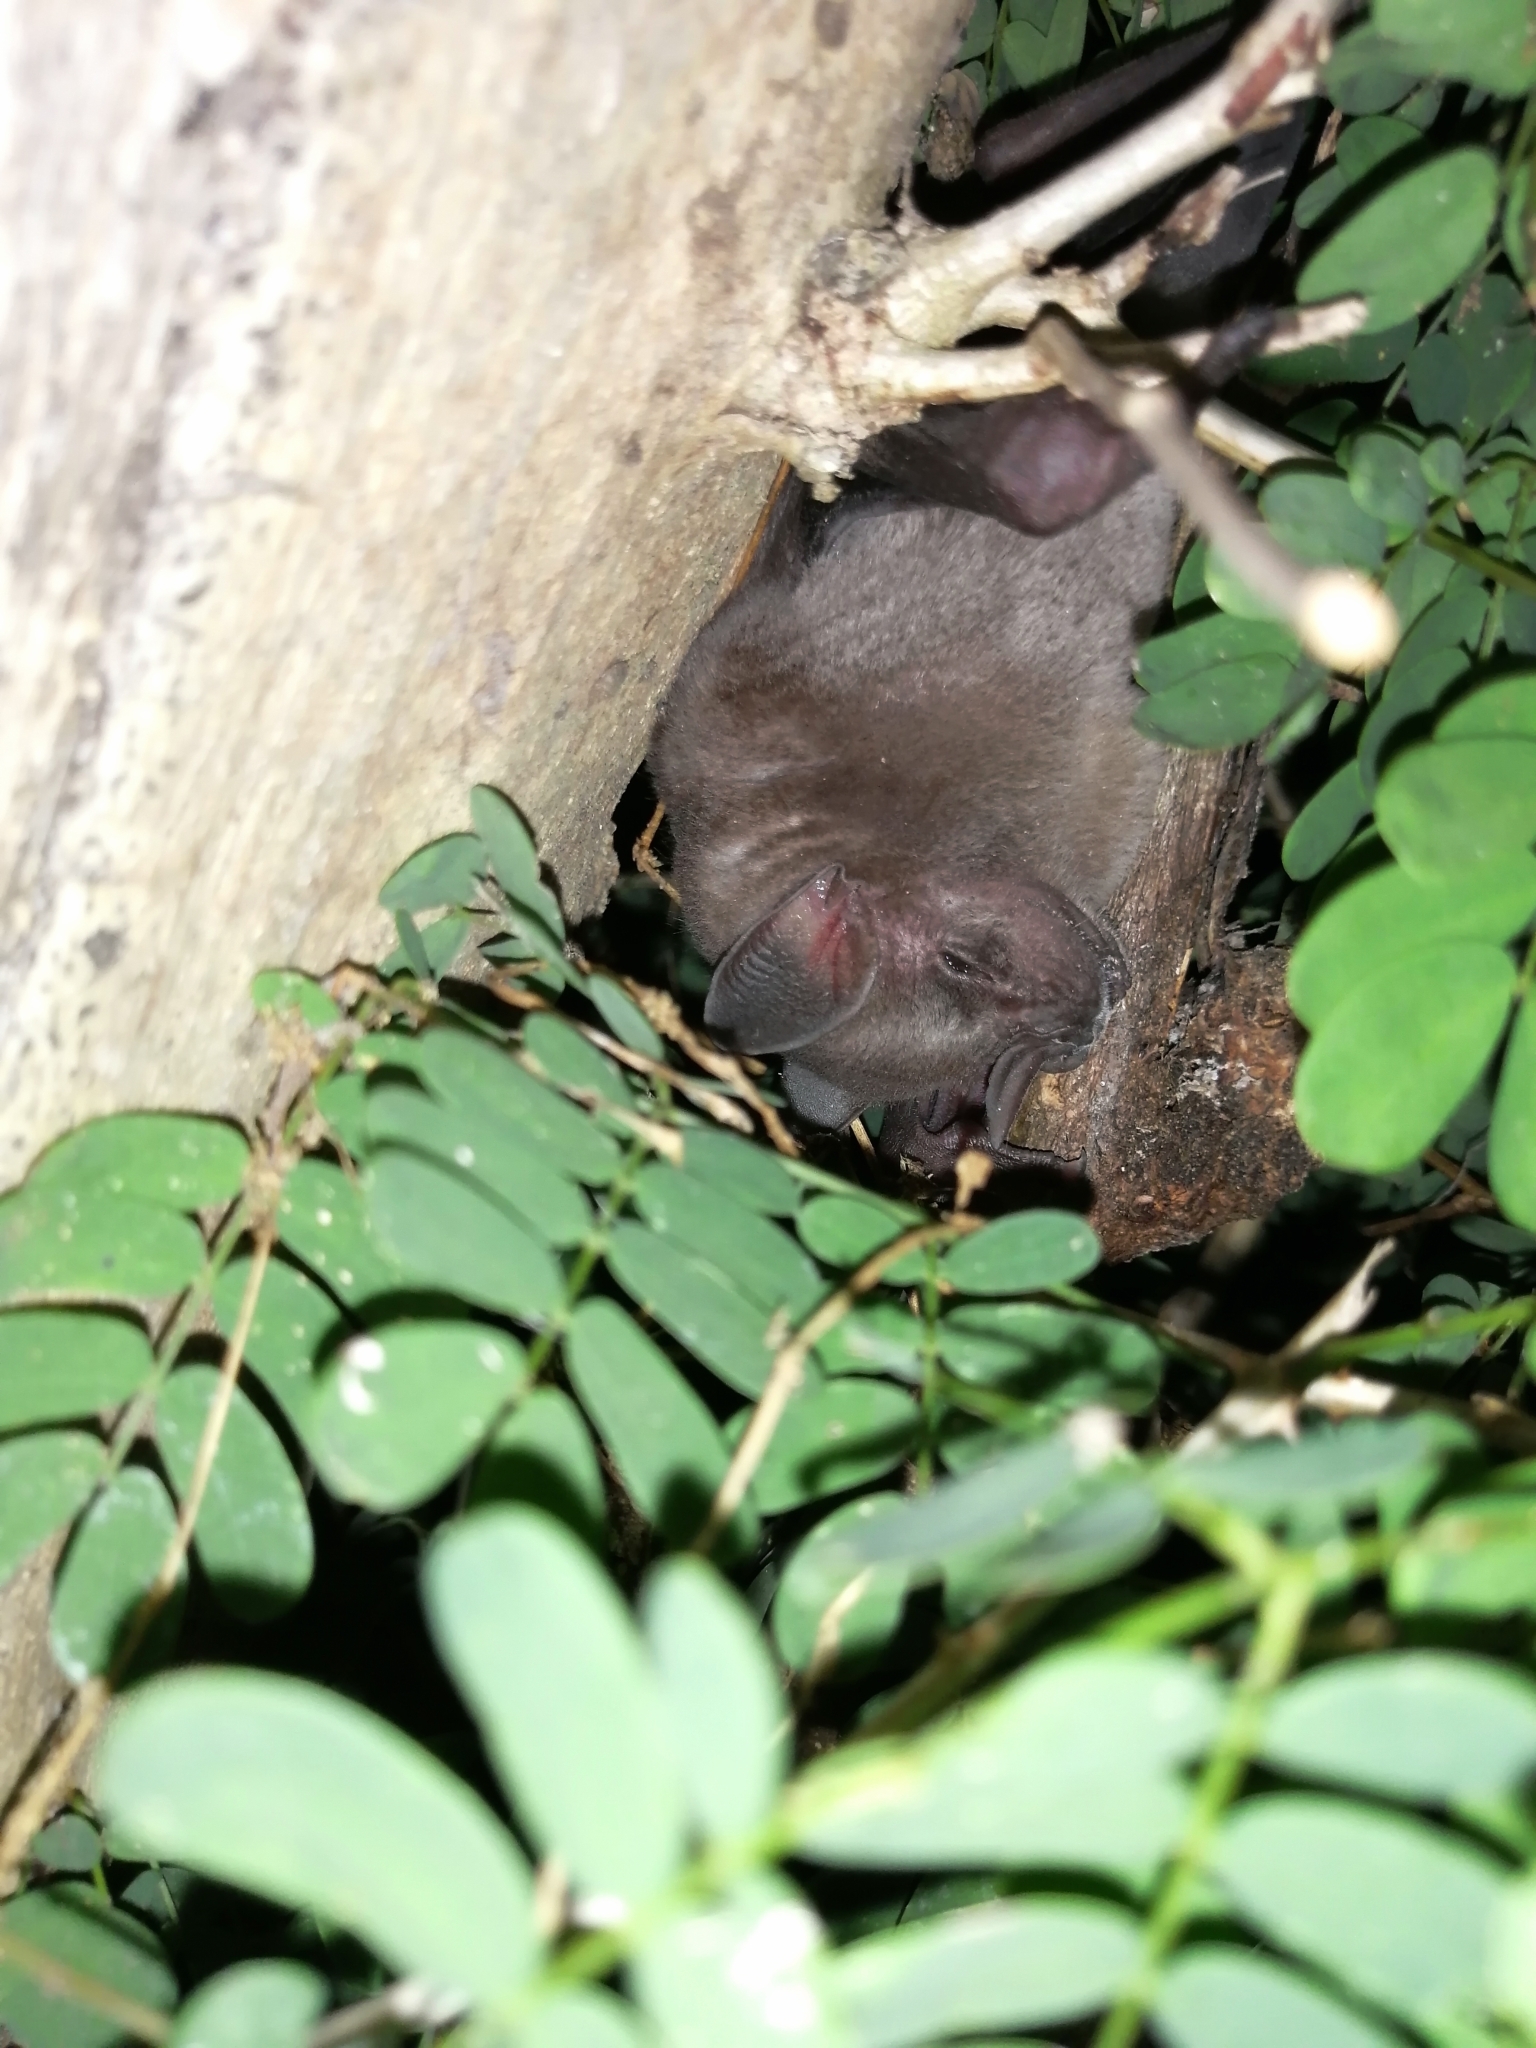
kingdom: Animalia
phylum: Chordata
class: Mammalia
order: Chiroptera
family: Phyllostomidae
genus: Artibeus
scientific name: Artibeus jamaicensis
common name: Jamaican fruit-eating bat
